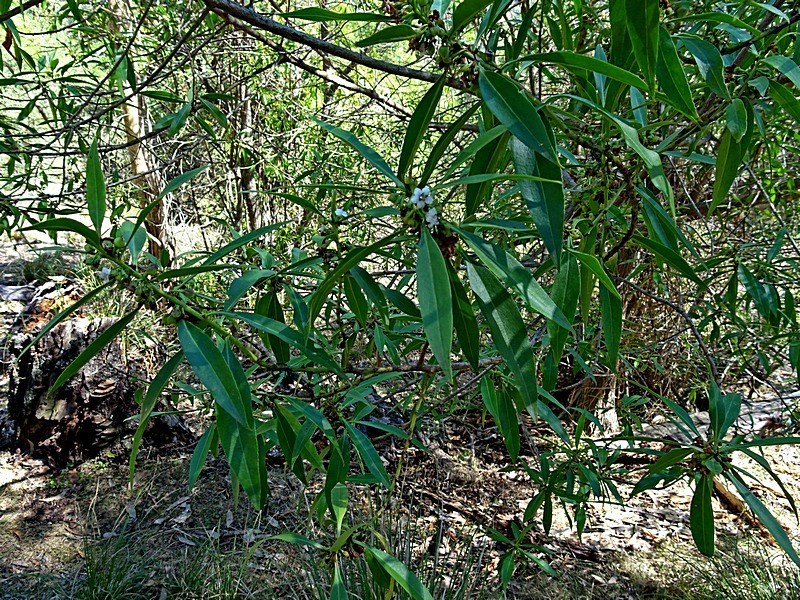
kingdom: Plantae
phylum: Tracheophyta
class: Magnoliopsida
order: Lamiales
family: Scrophulariaceae
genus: Myoporum
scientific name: Myoporum acuminatum
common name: Pointed boobialla
